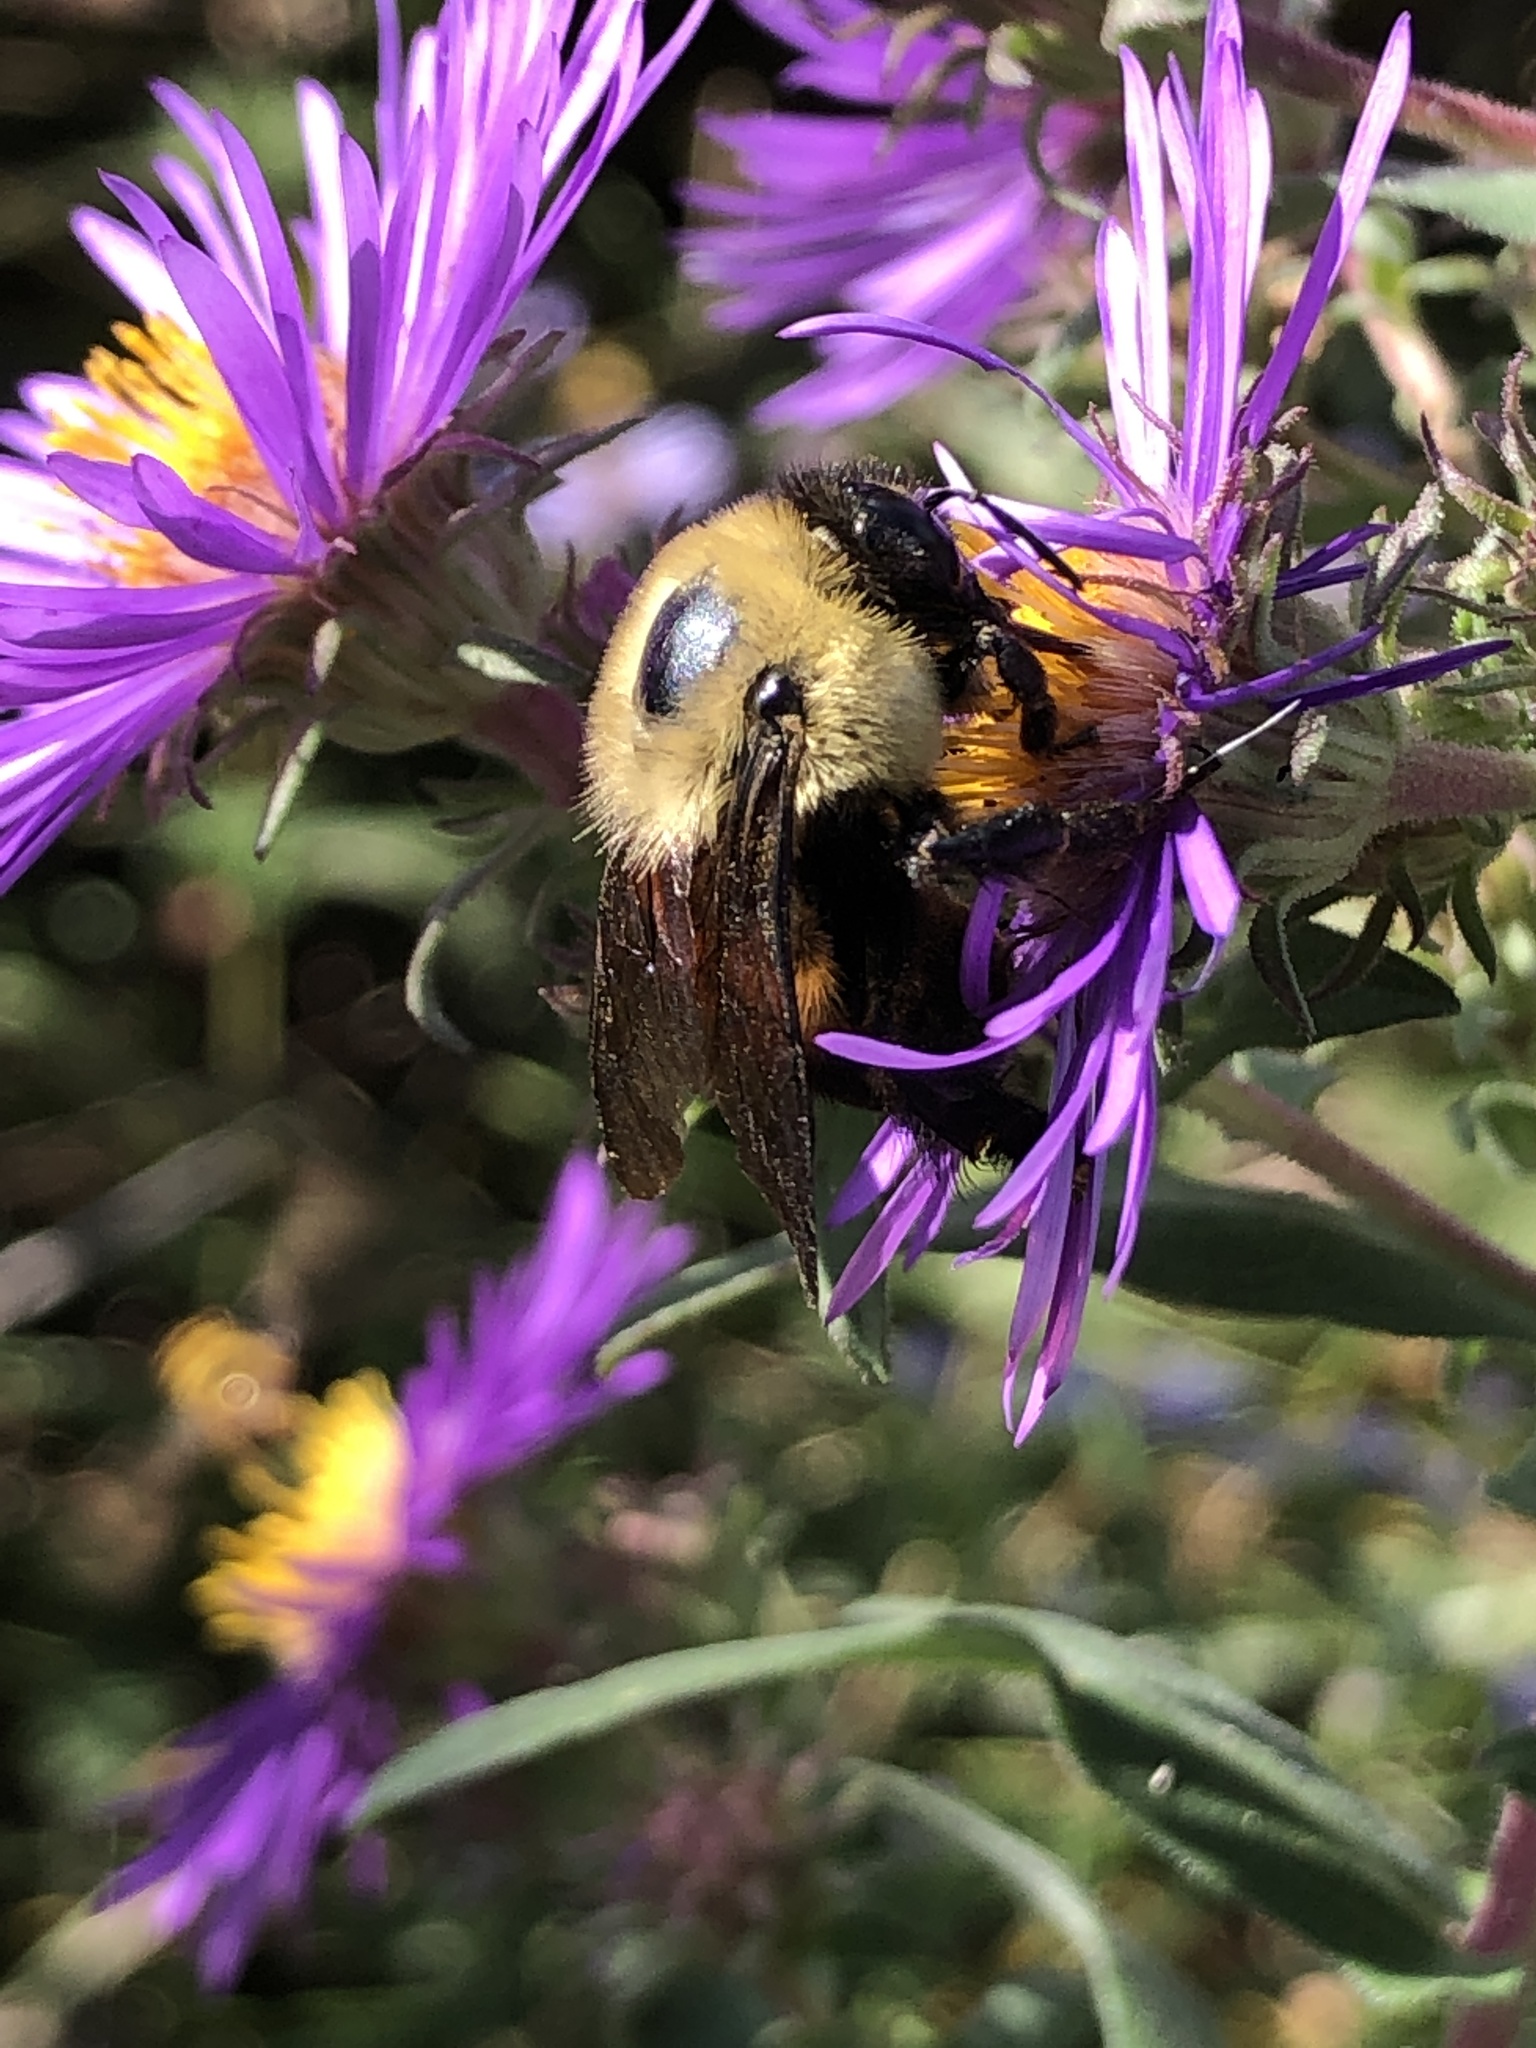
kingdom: Animalia
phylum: Arthropoda
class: Insecta
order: Hymenoptera
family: Apidae
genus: Bombus
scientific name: Bombus griseocollis
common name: Brown-belted bumble bee
